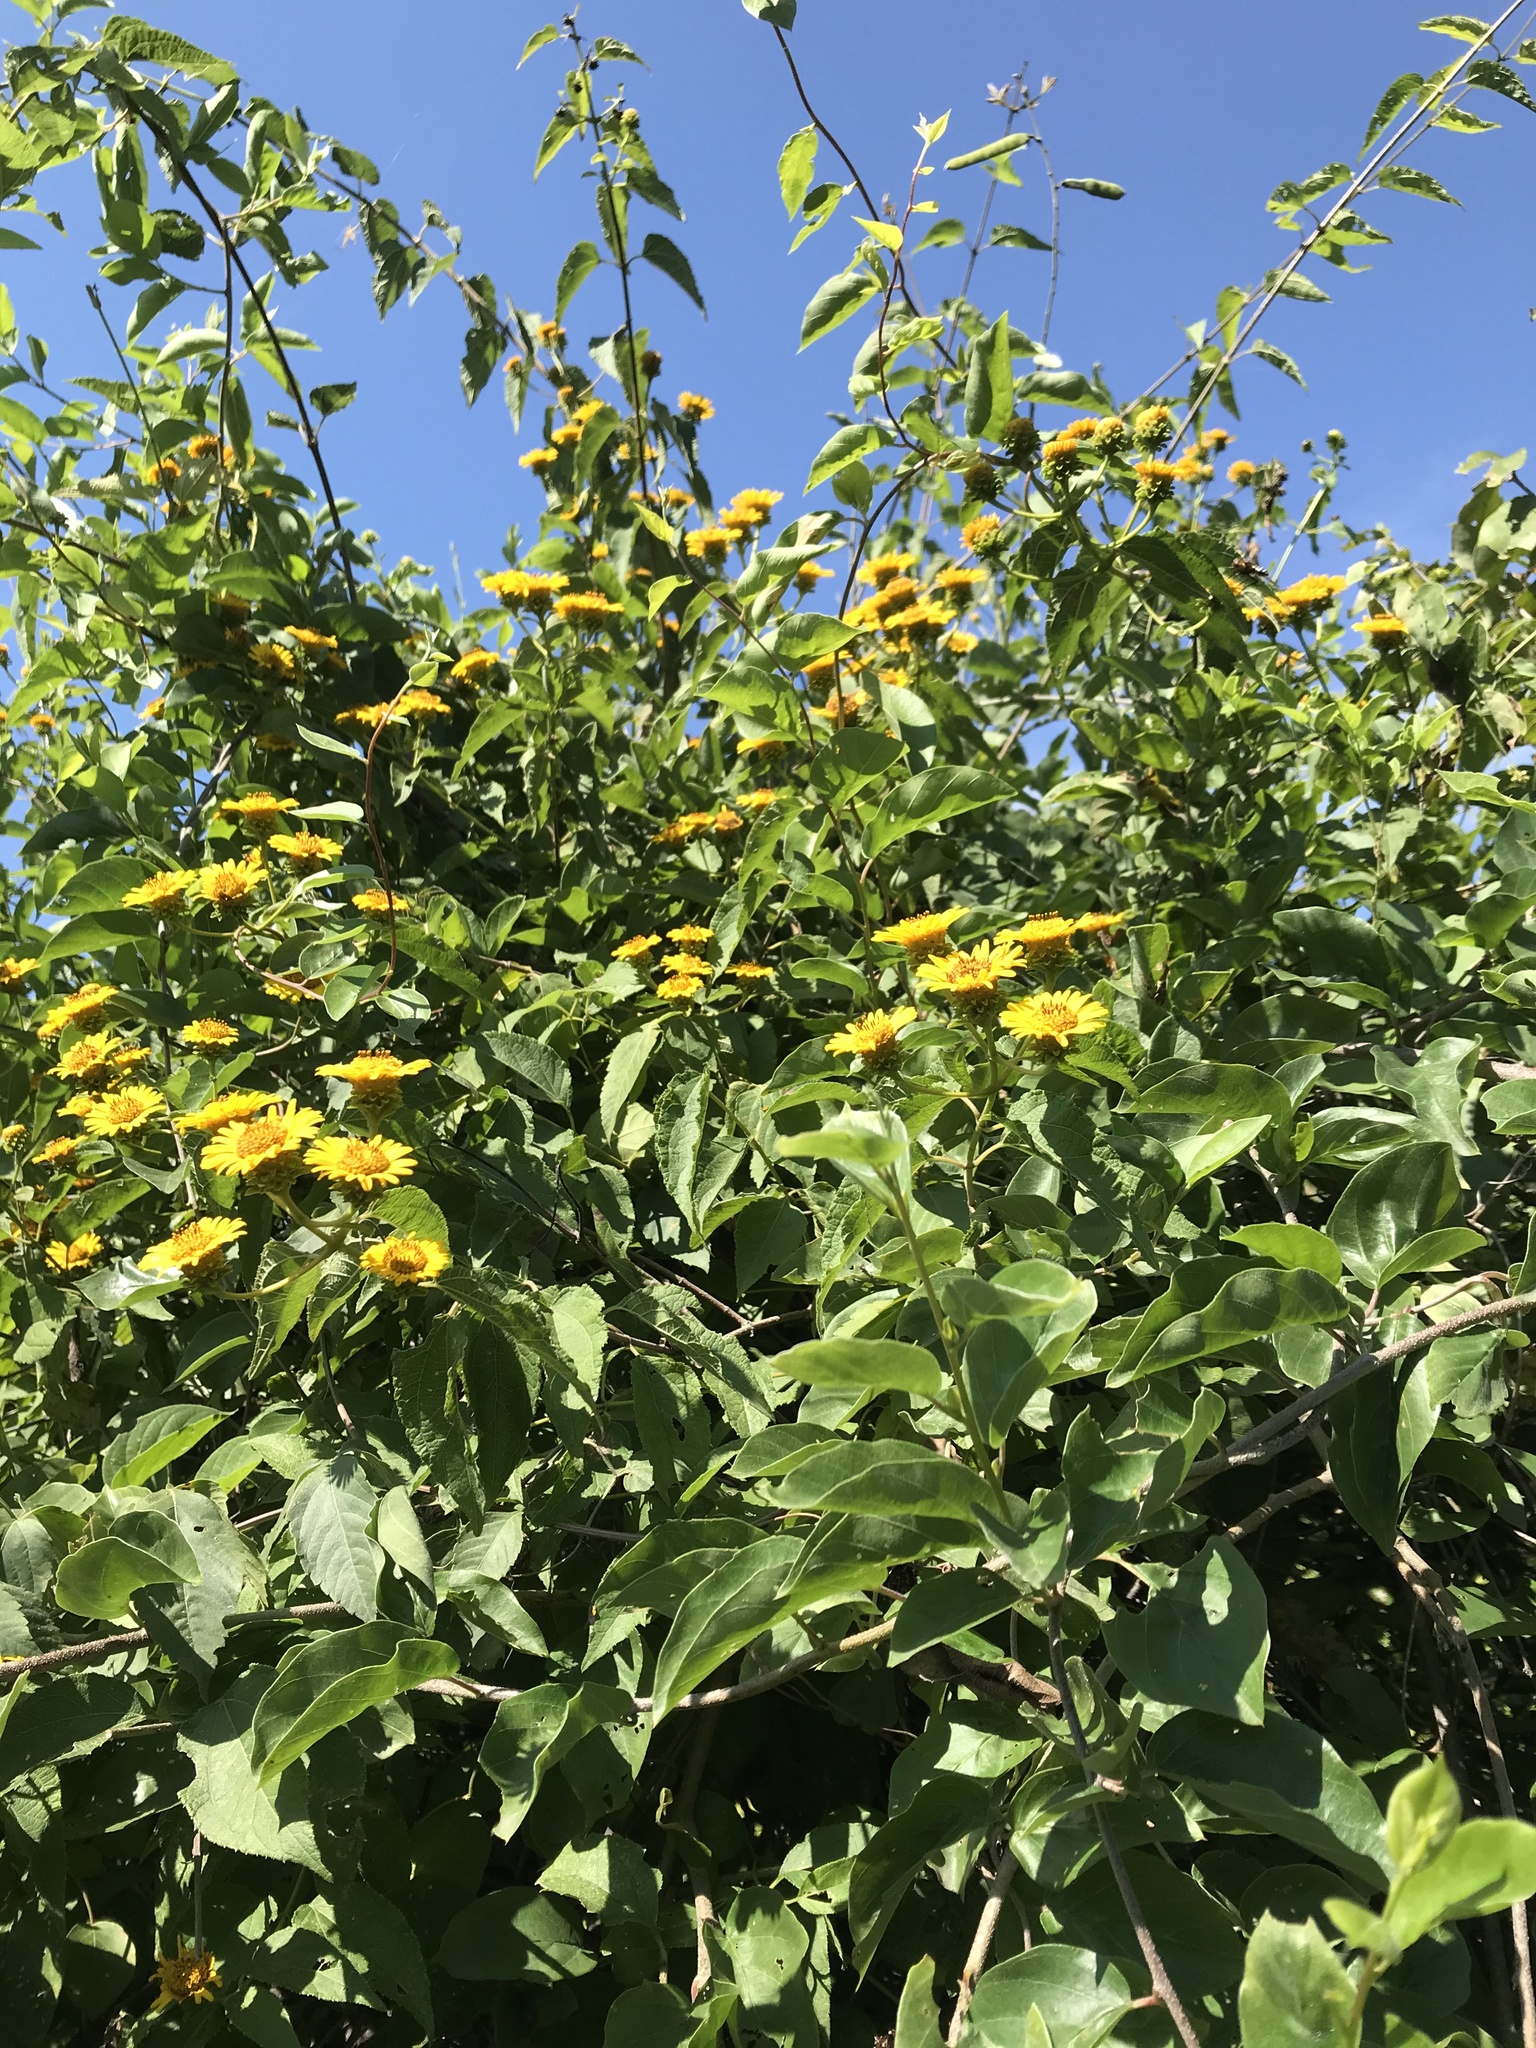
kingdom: Plantae
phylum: Tracheophyta
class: Magnoliopsida
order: Asterales
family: Asteraceae
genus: Otopappus
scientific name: Otopappus epaleaceus
